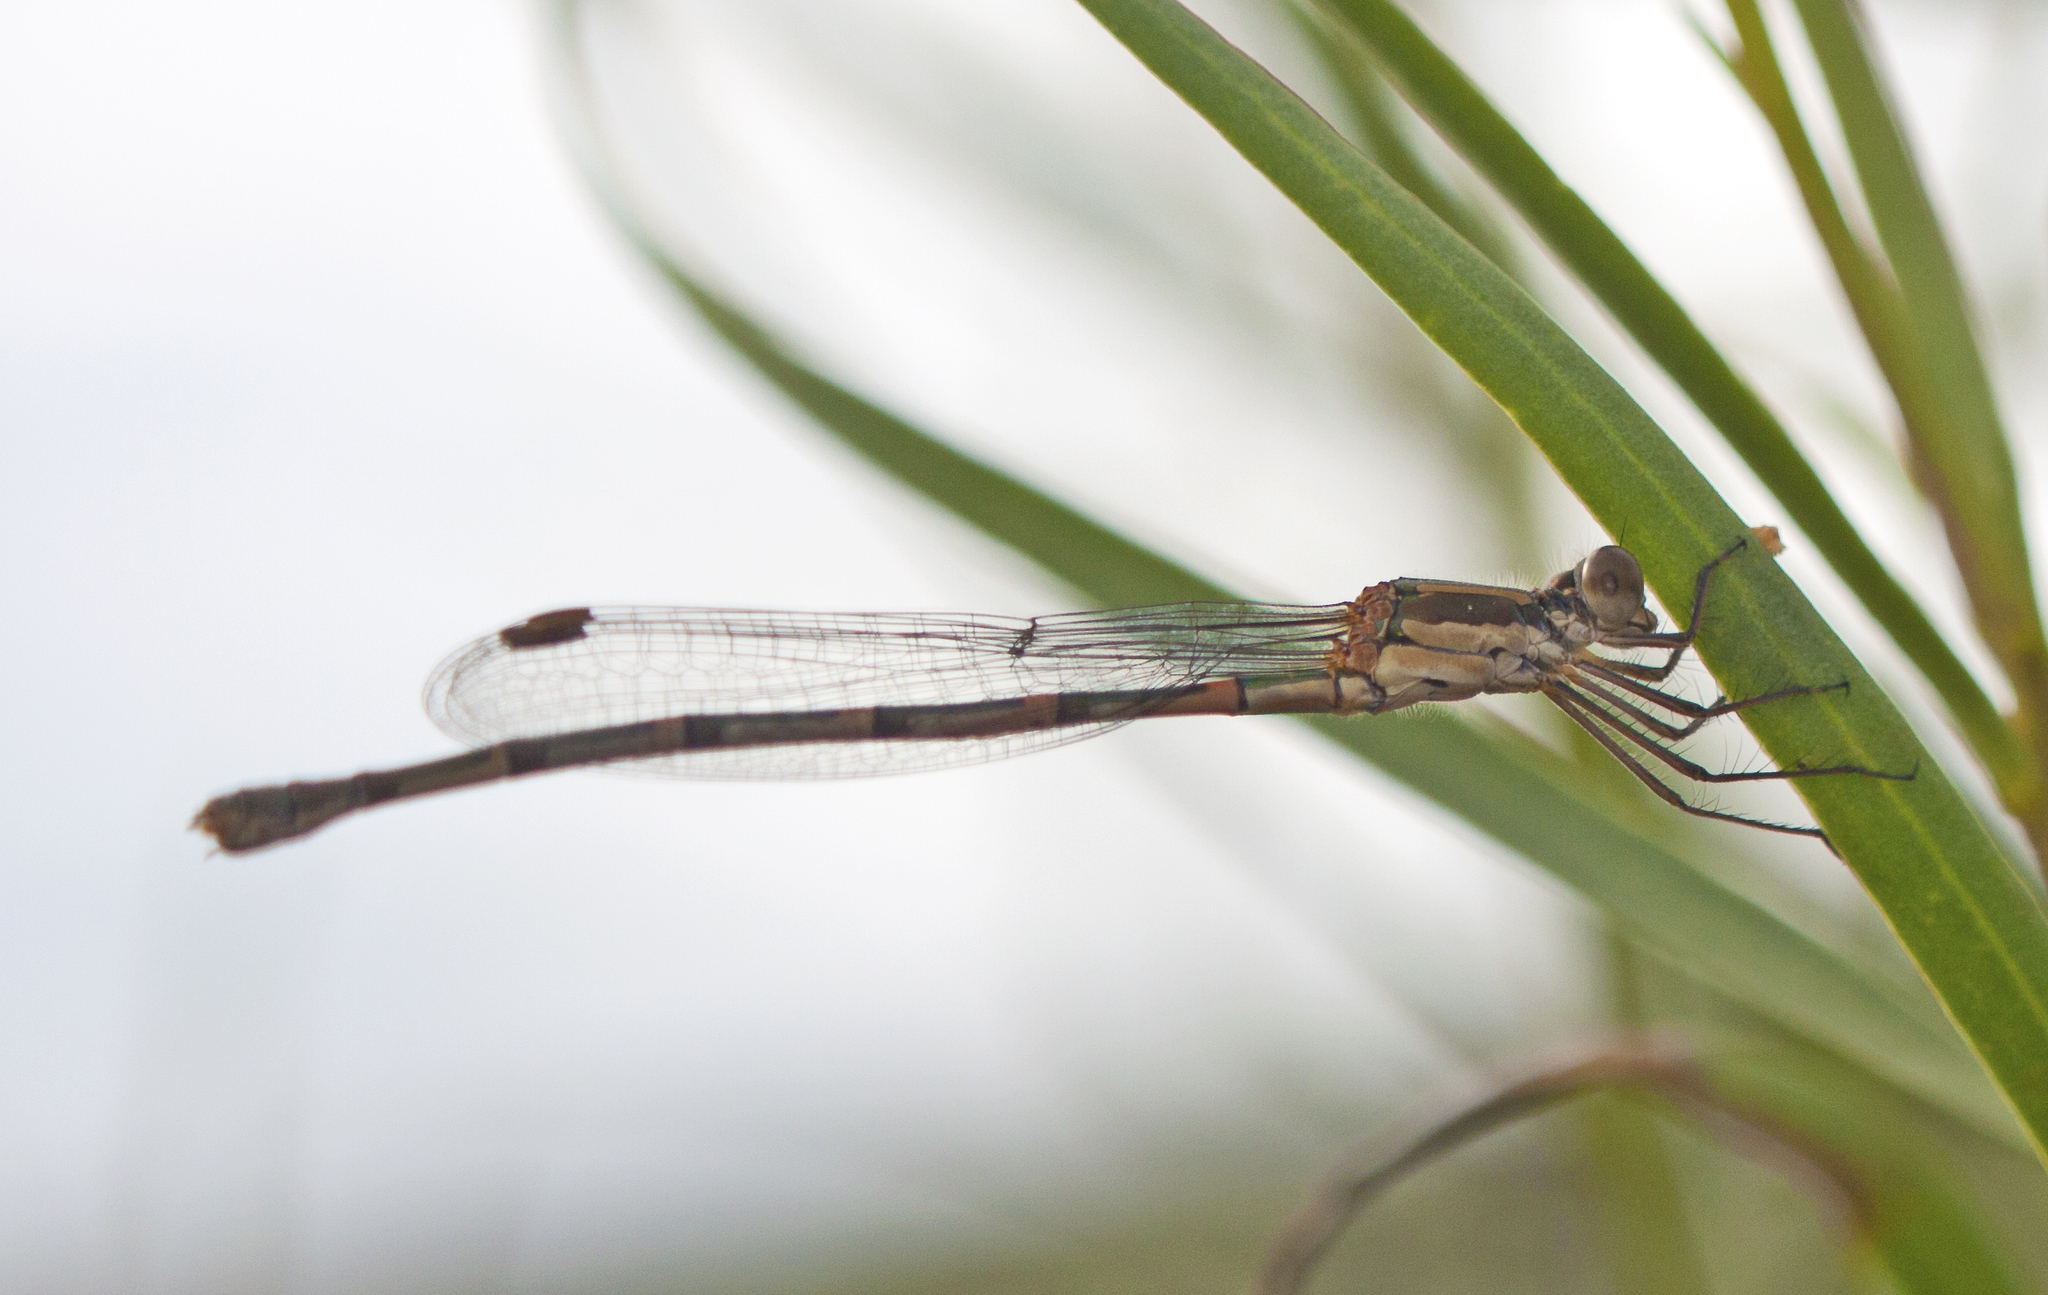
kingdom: Animalia
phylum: Arthropoda
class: Insecta
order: Odonata
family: Lestidae
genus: Austrolestes
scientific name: Austrolestes leda
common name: Wandering ringtail
